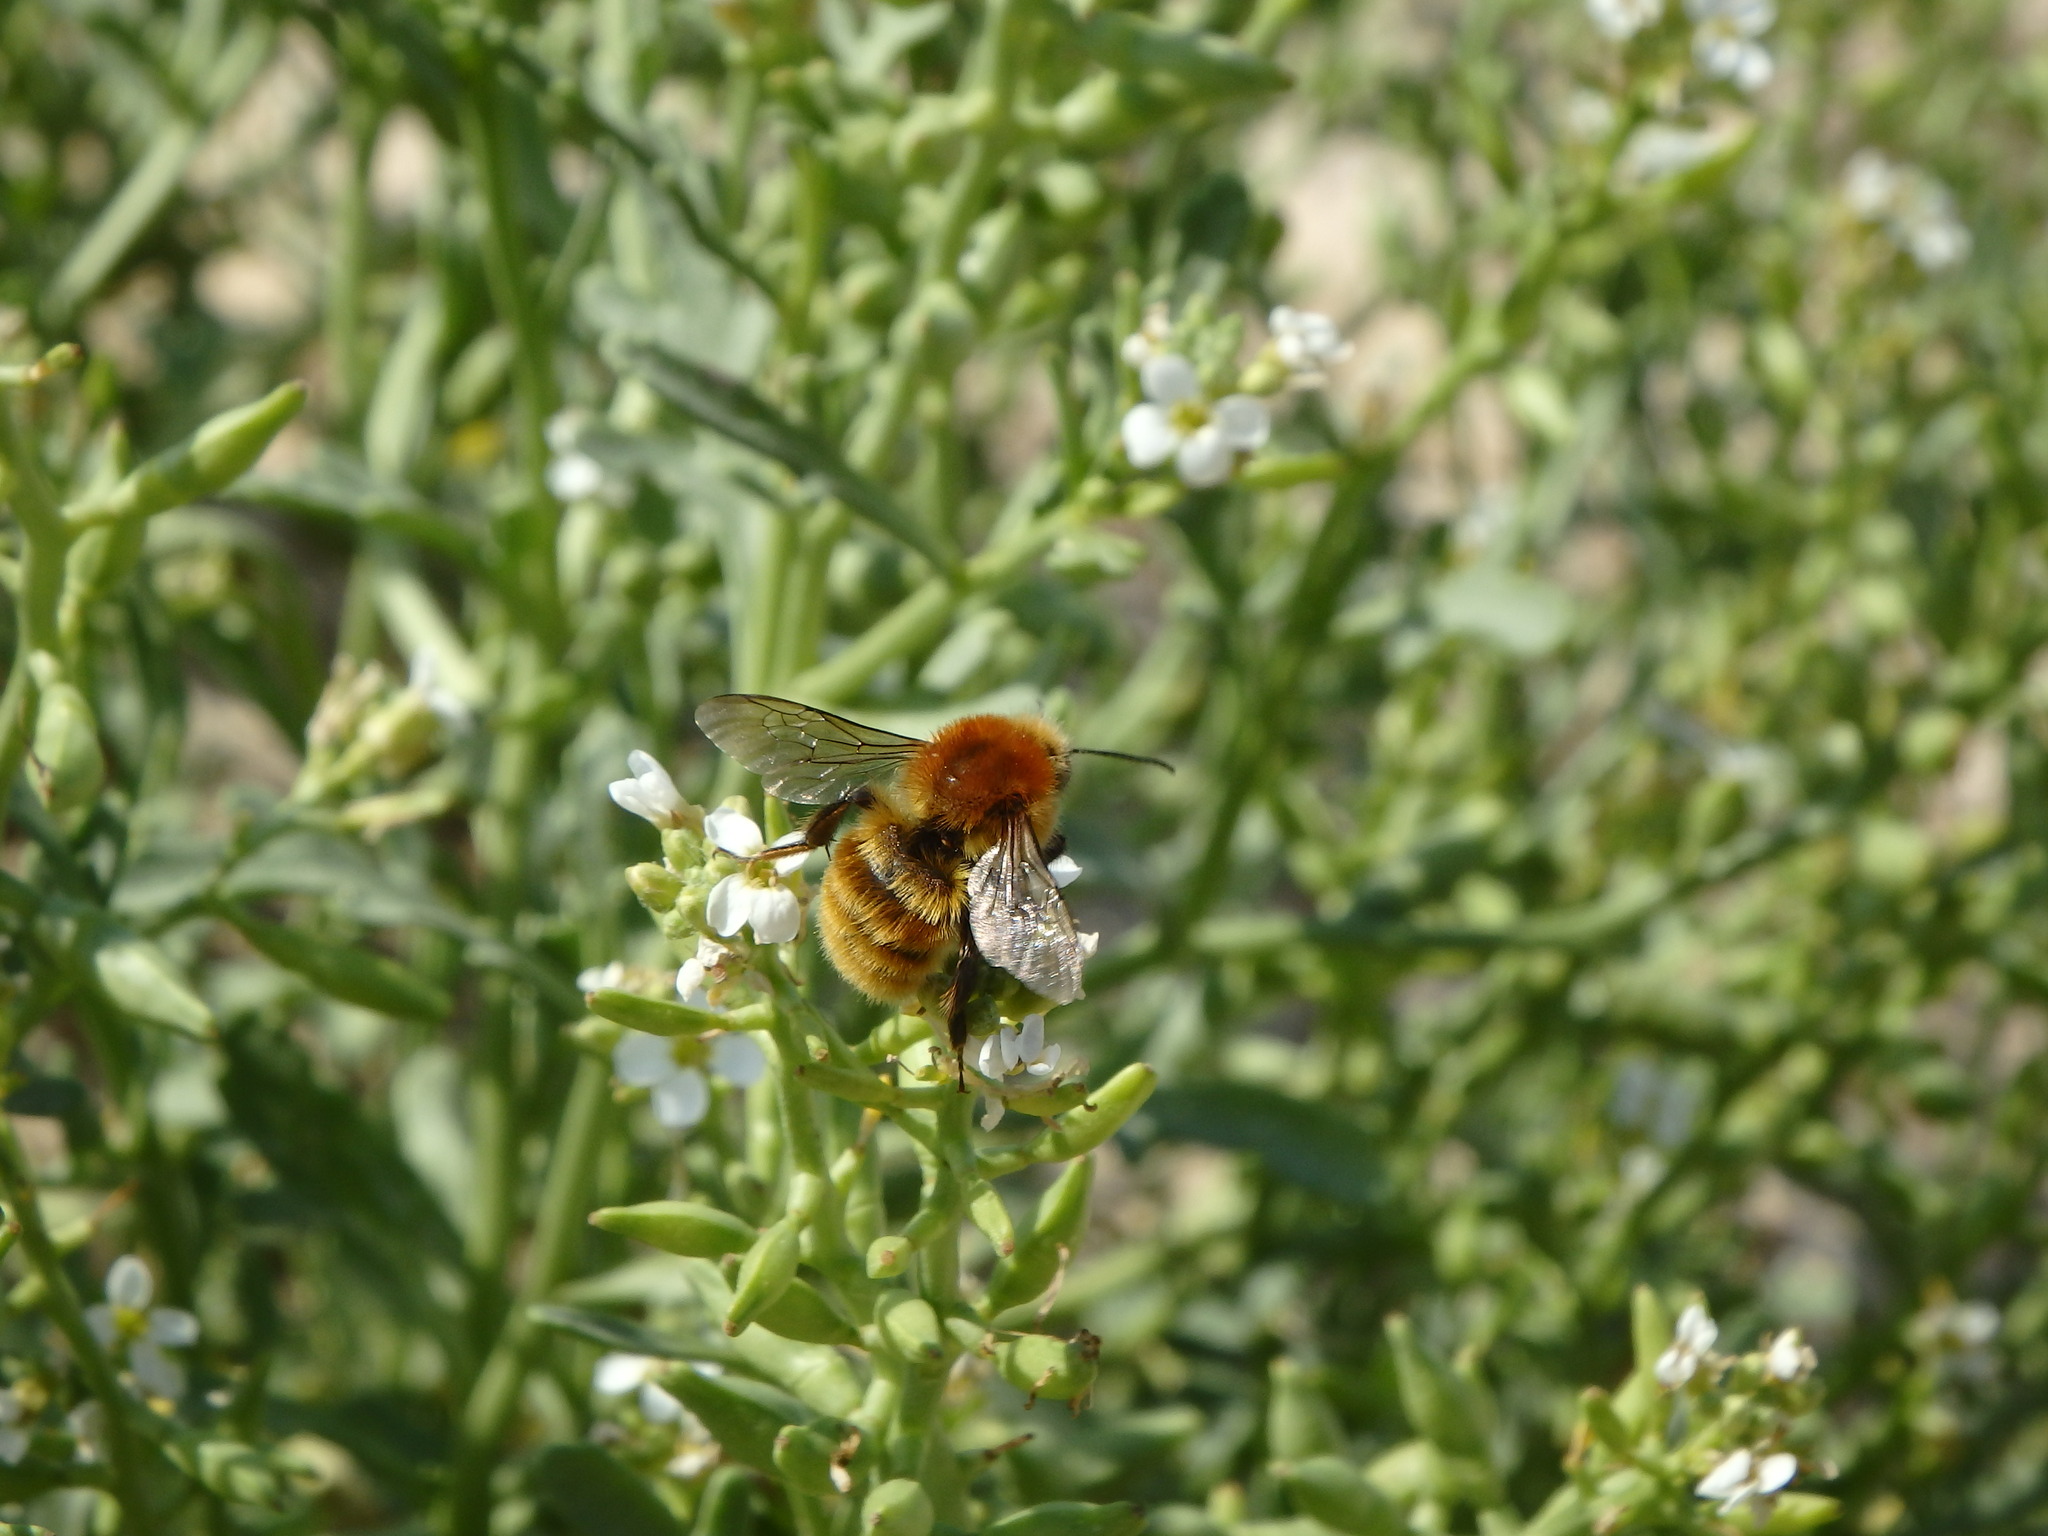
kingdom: Animalia
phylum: Arthropoda
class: Insecta
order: Hymenoptera
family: Apidae
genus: Bombus
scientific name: Bombus pascuorum
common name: Common carder bee
